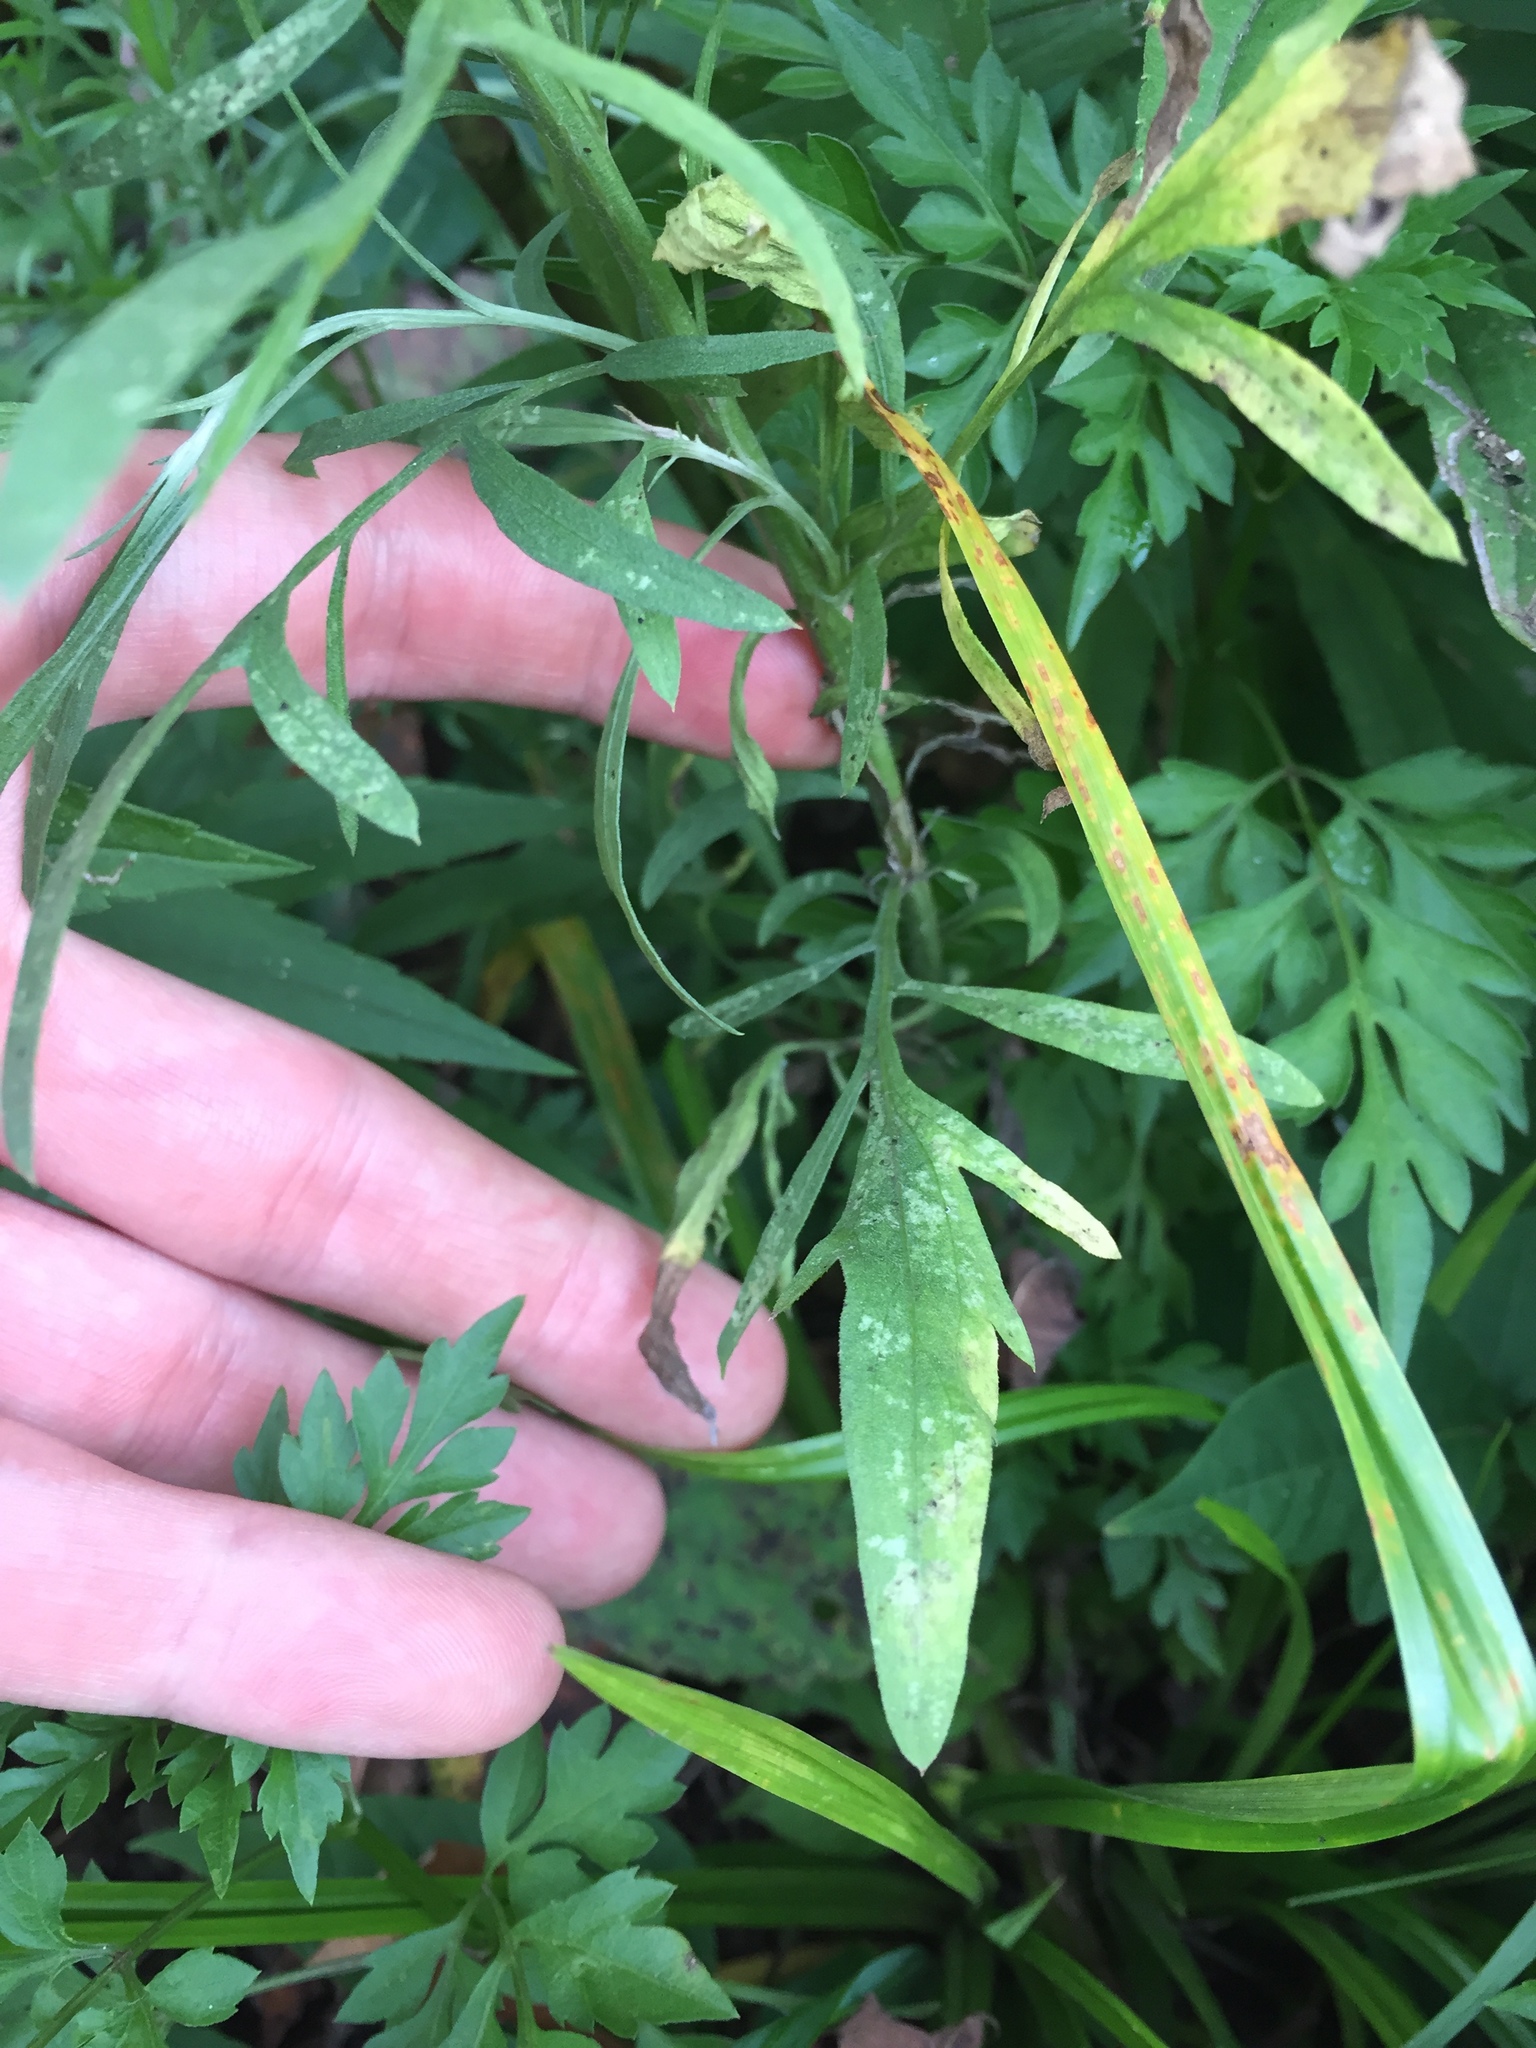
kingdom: Plantae
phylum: Tracheophyta
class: Magnoliopsida
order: Asterales
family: Asteraceae
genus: Centaurea
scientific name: Centaurea stoebe
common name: Spotted knapweed
